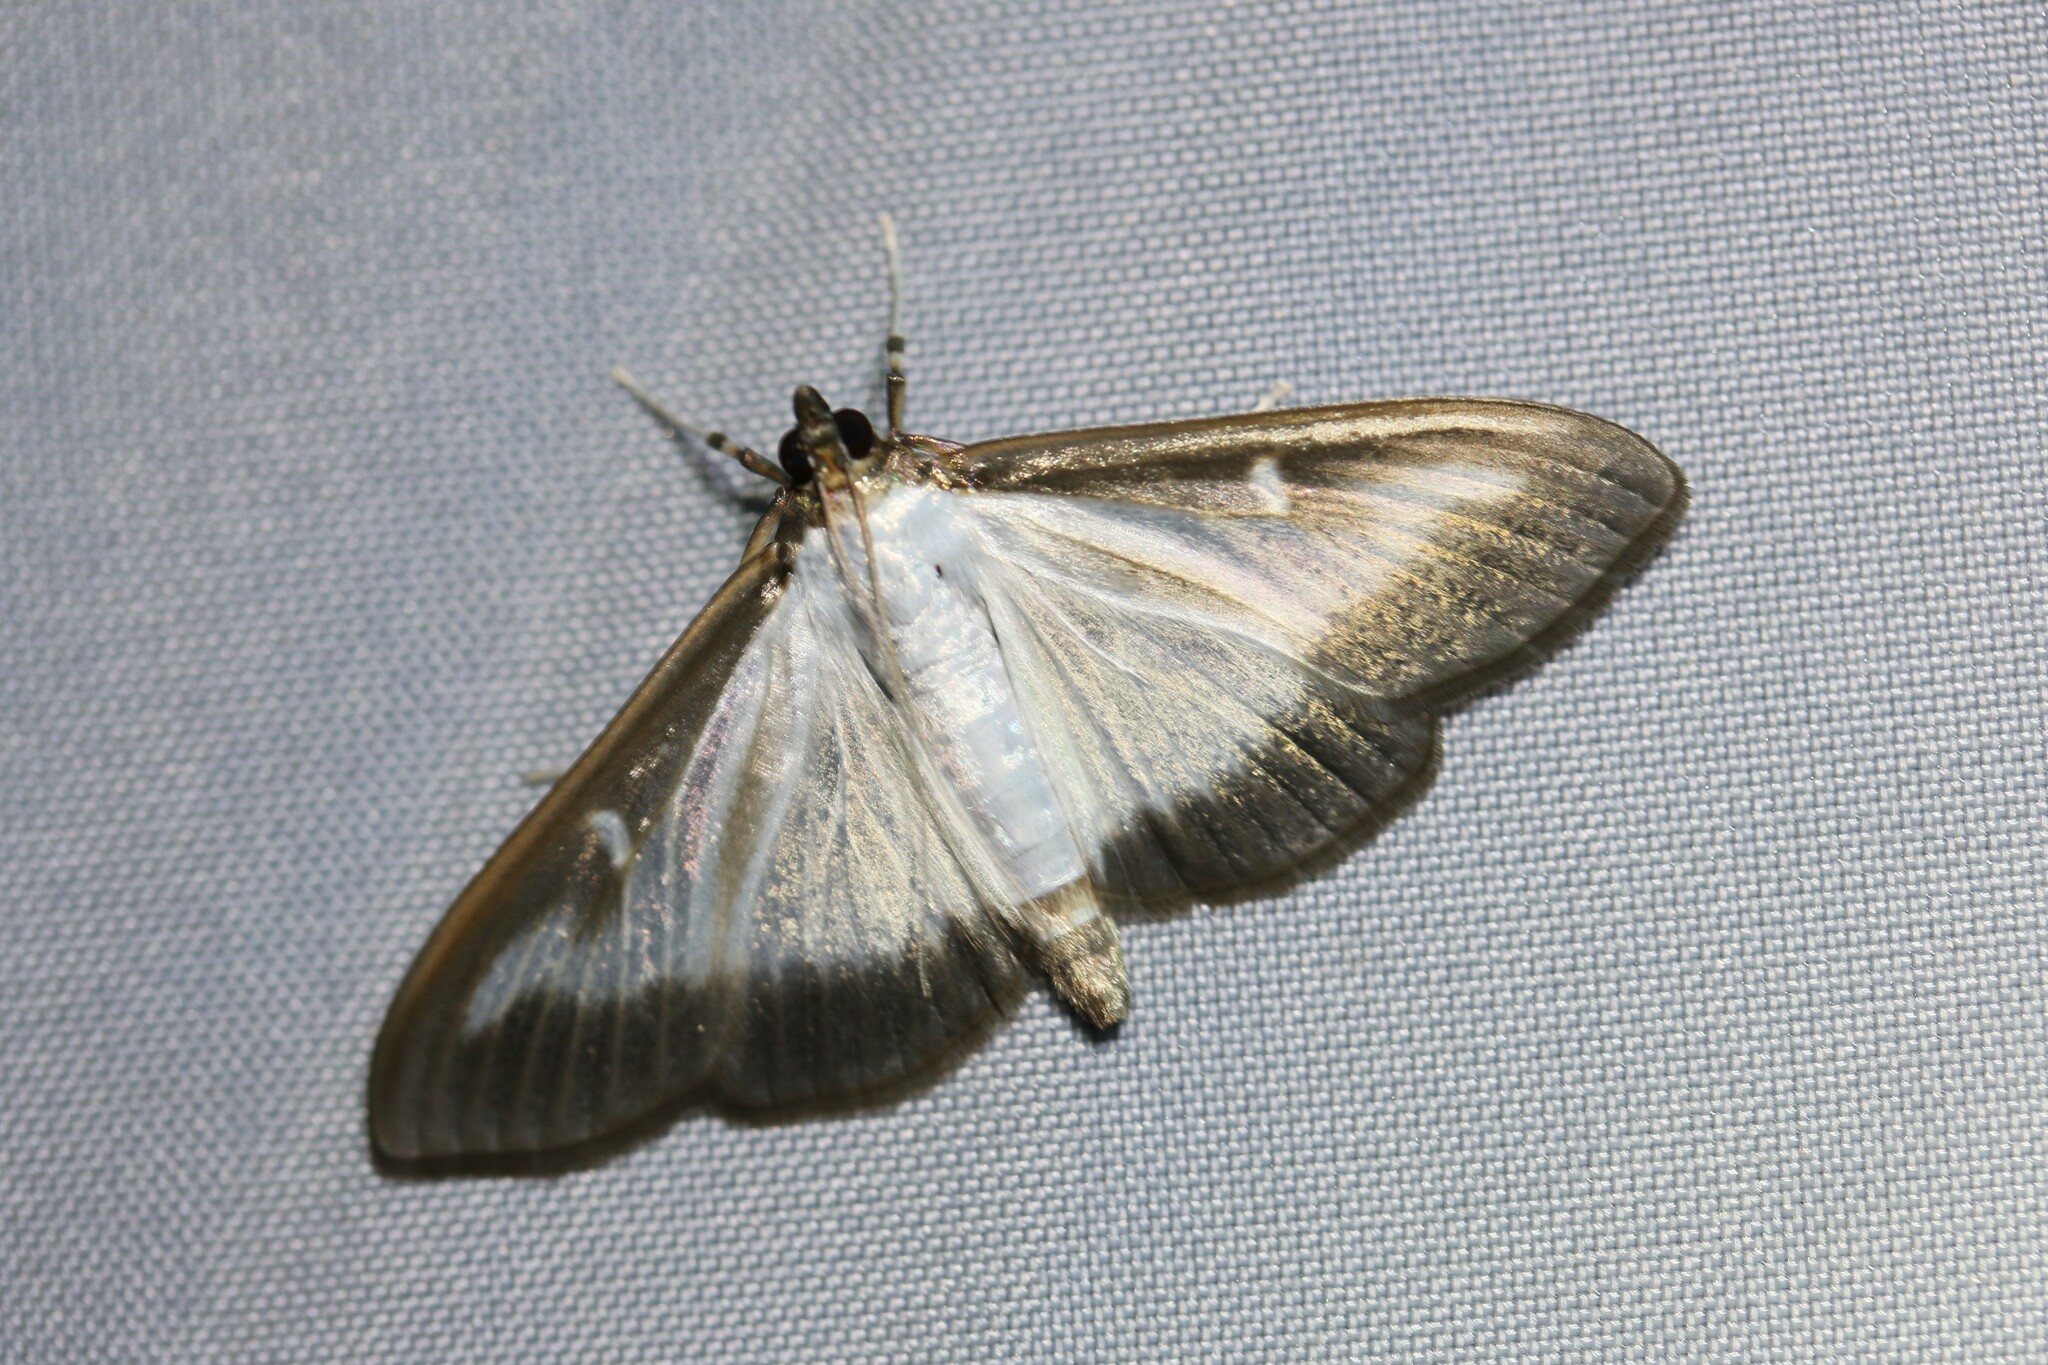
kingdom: Animalia
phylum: Arthropoda
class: Insecta
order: Lepidoptera
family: Crambidae
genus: Cydalima
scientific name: Cydalima perspectalis
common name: Box tree moth
